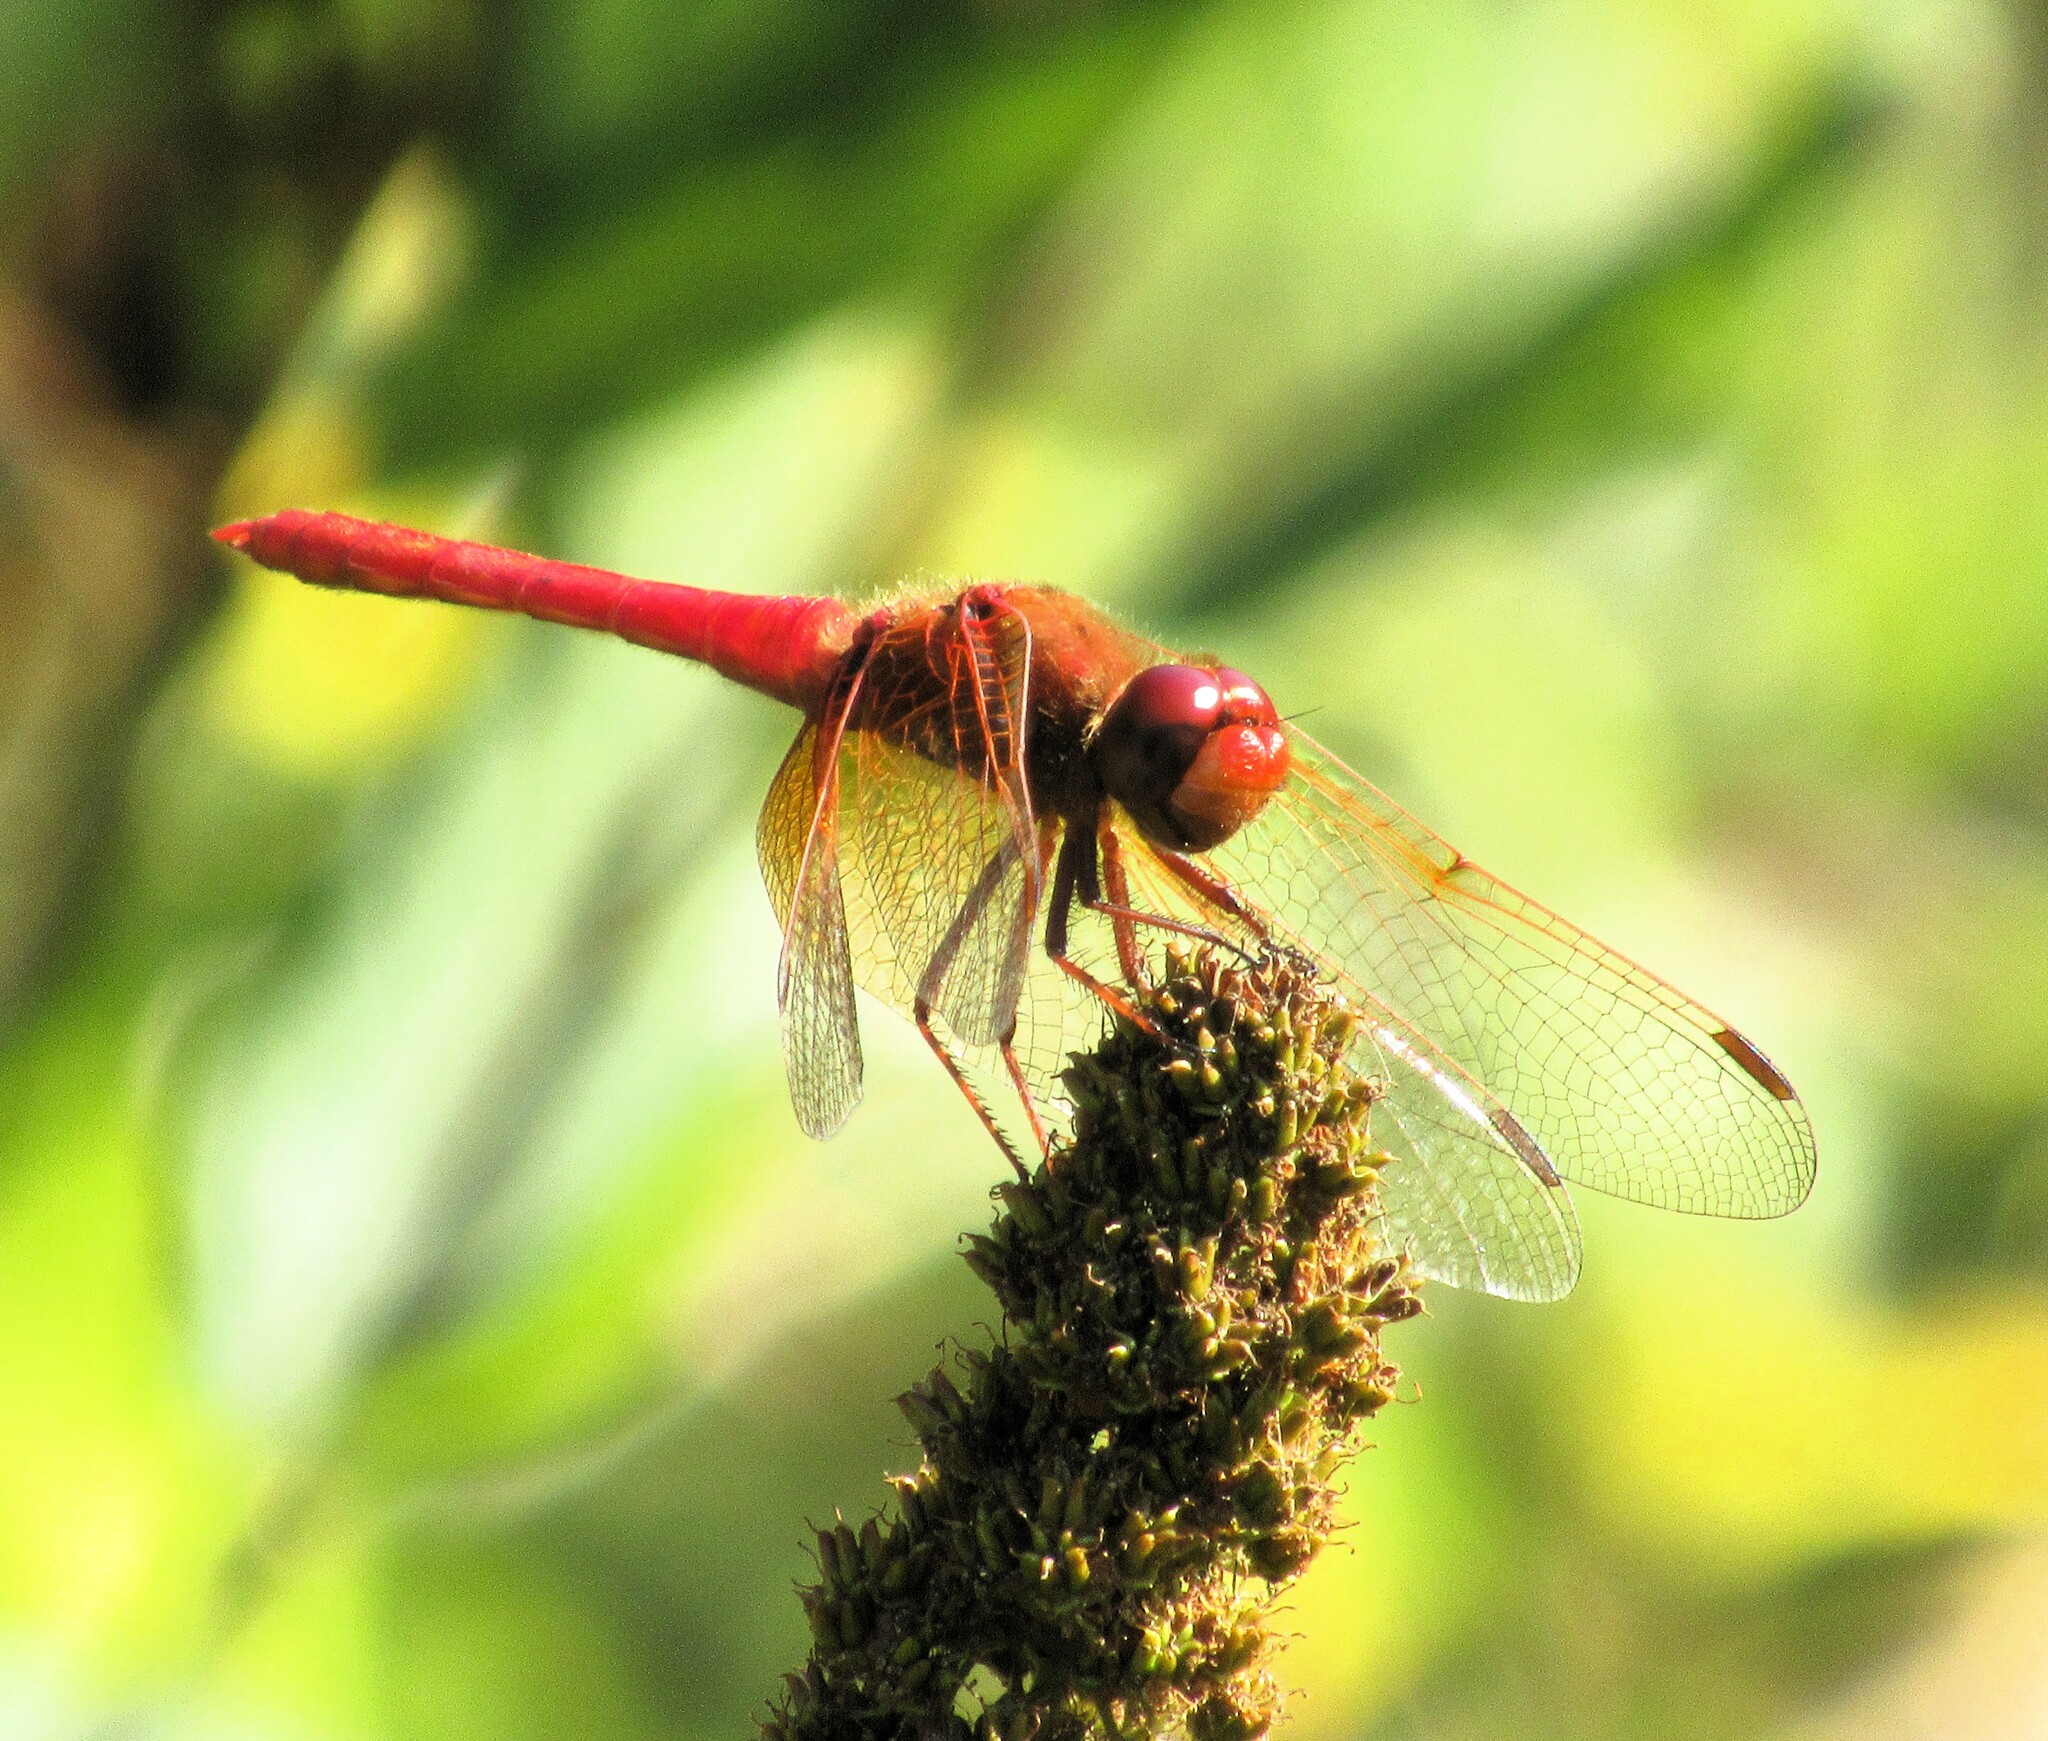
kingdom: Animalia
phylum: Arthropoda
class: Insecta
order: Odonata
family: Libellulidae
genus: Sympetrum
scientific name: Sympetrum illotum
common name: Cardinal meadowhawk
